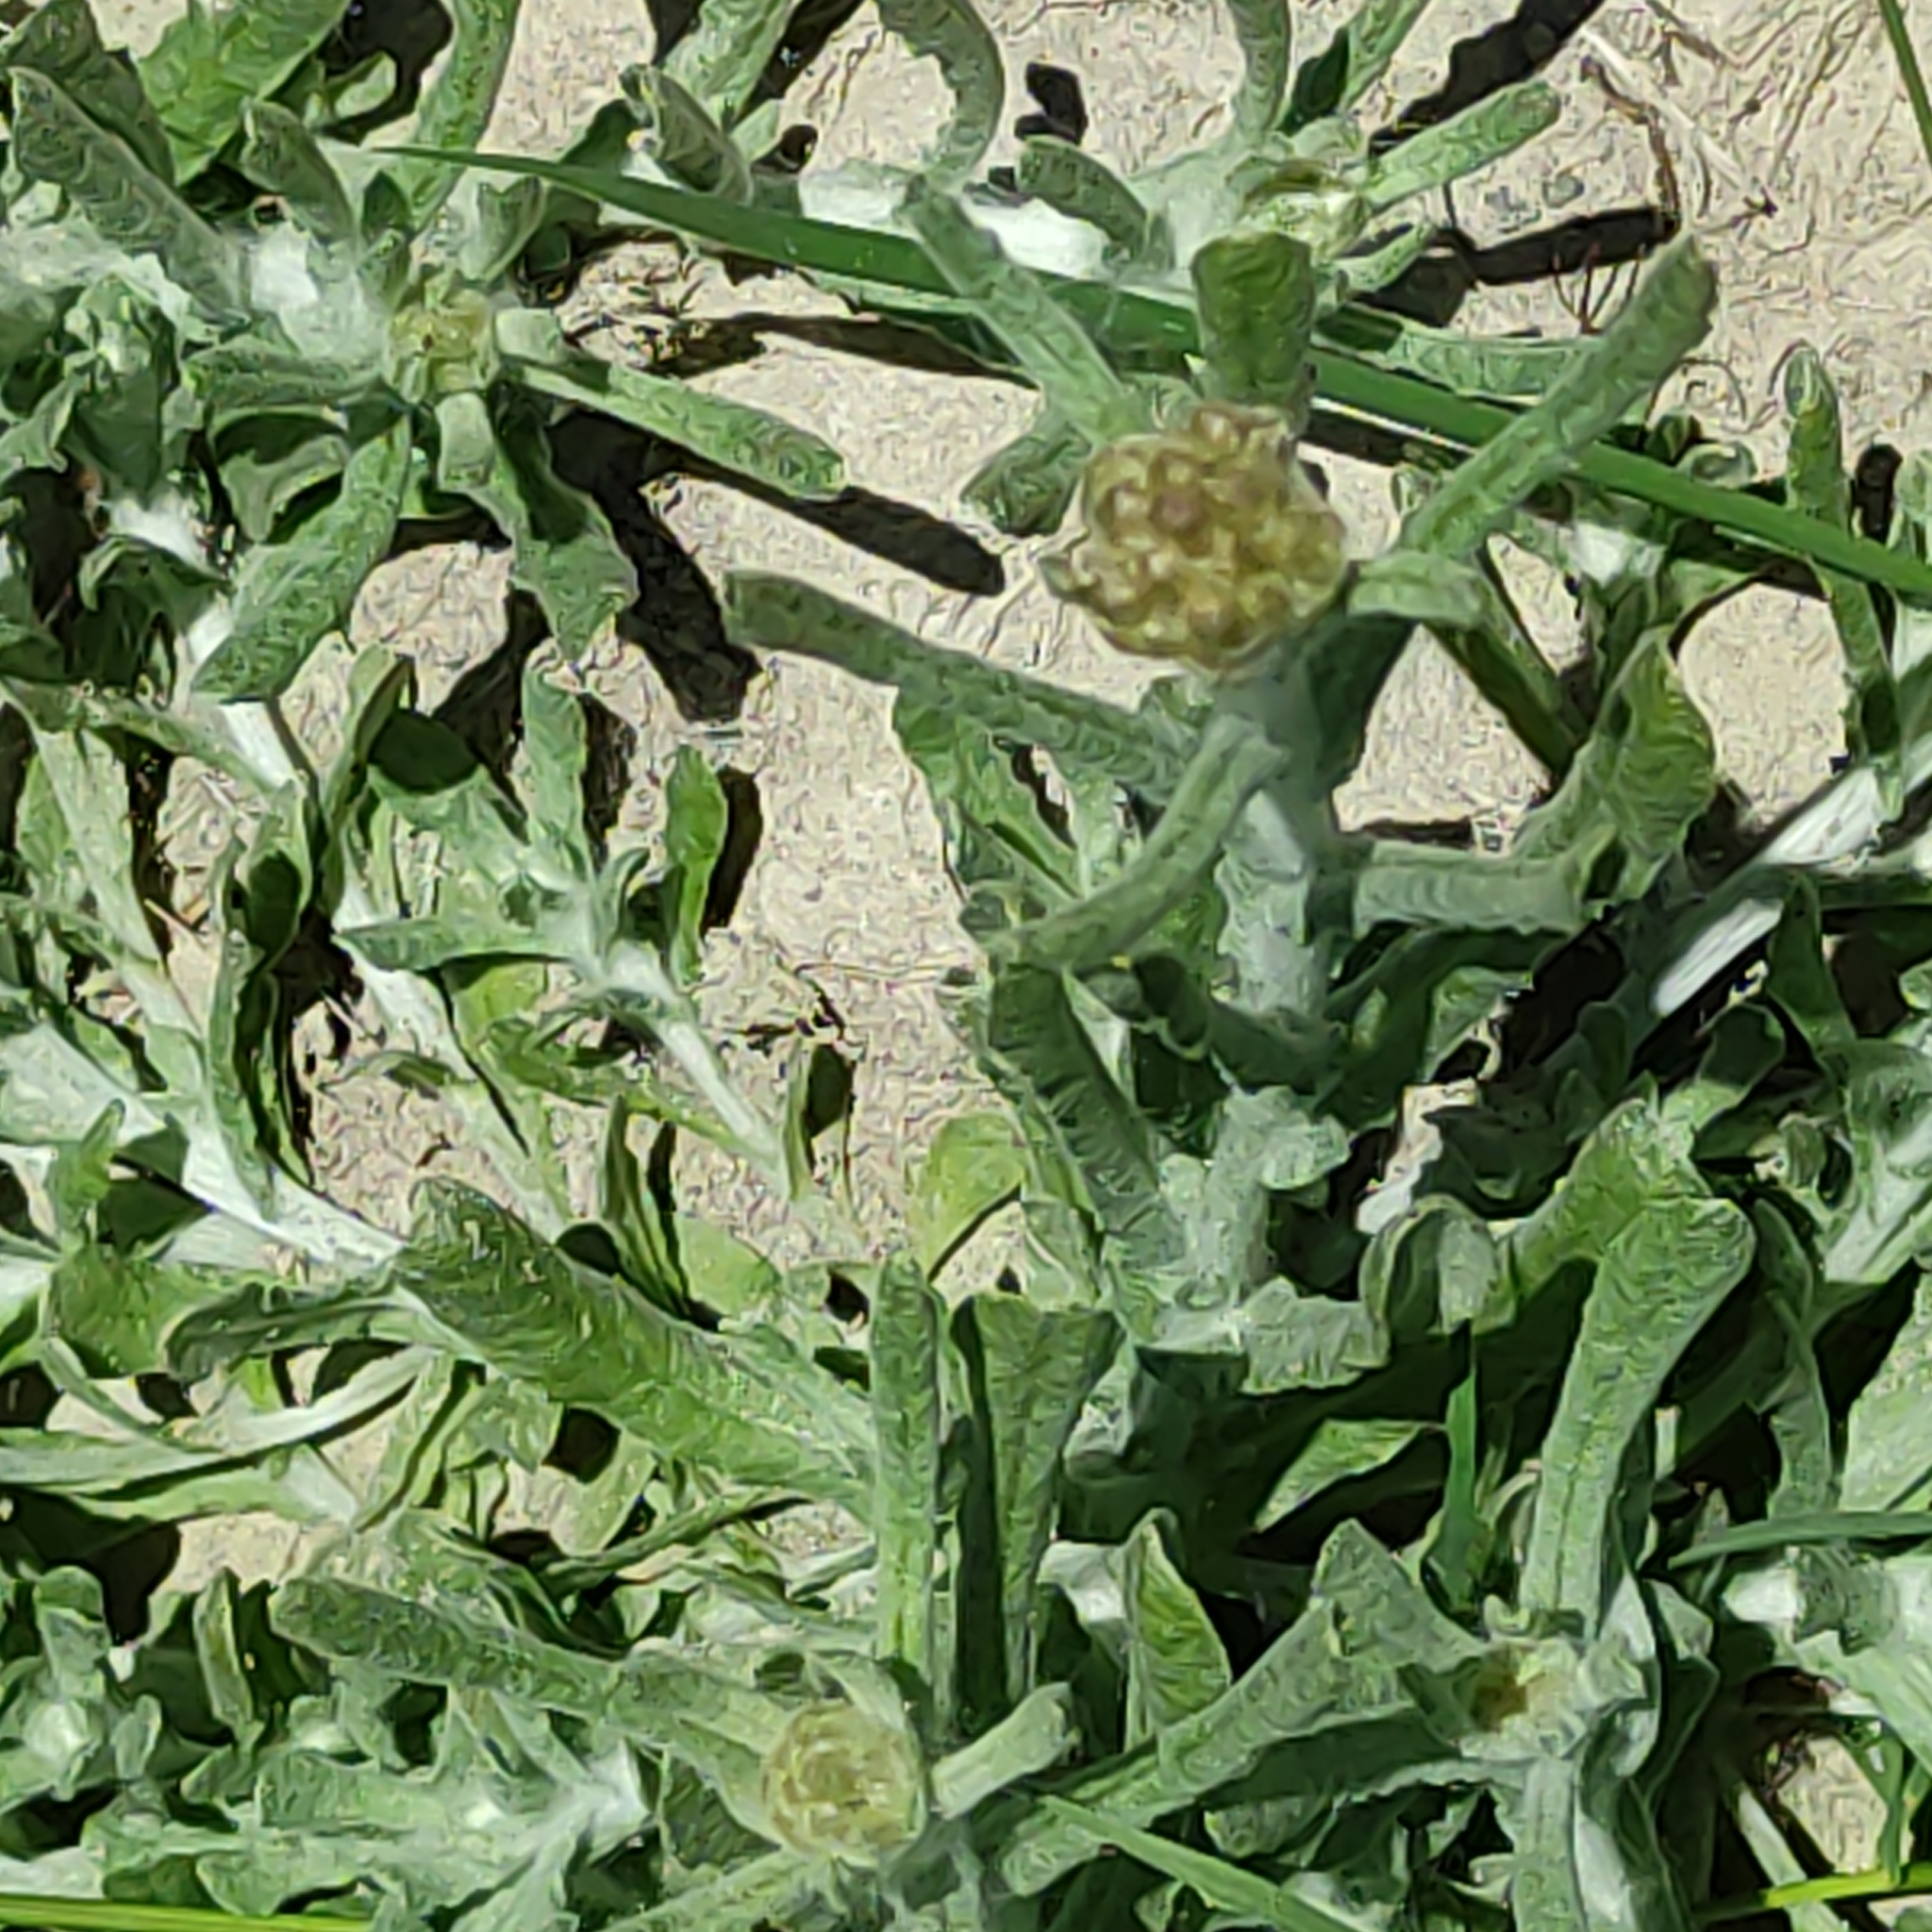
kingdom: Plantae
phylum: Tracheophyta
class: Magnoliopsida
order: Asterales
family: Asteraceae
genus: Helichrysum
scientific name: Helichrysum luteoalbum
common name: Daisy
